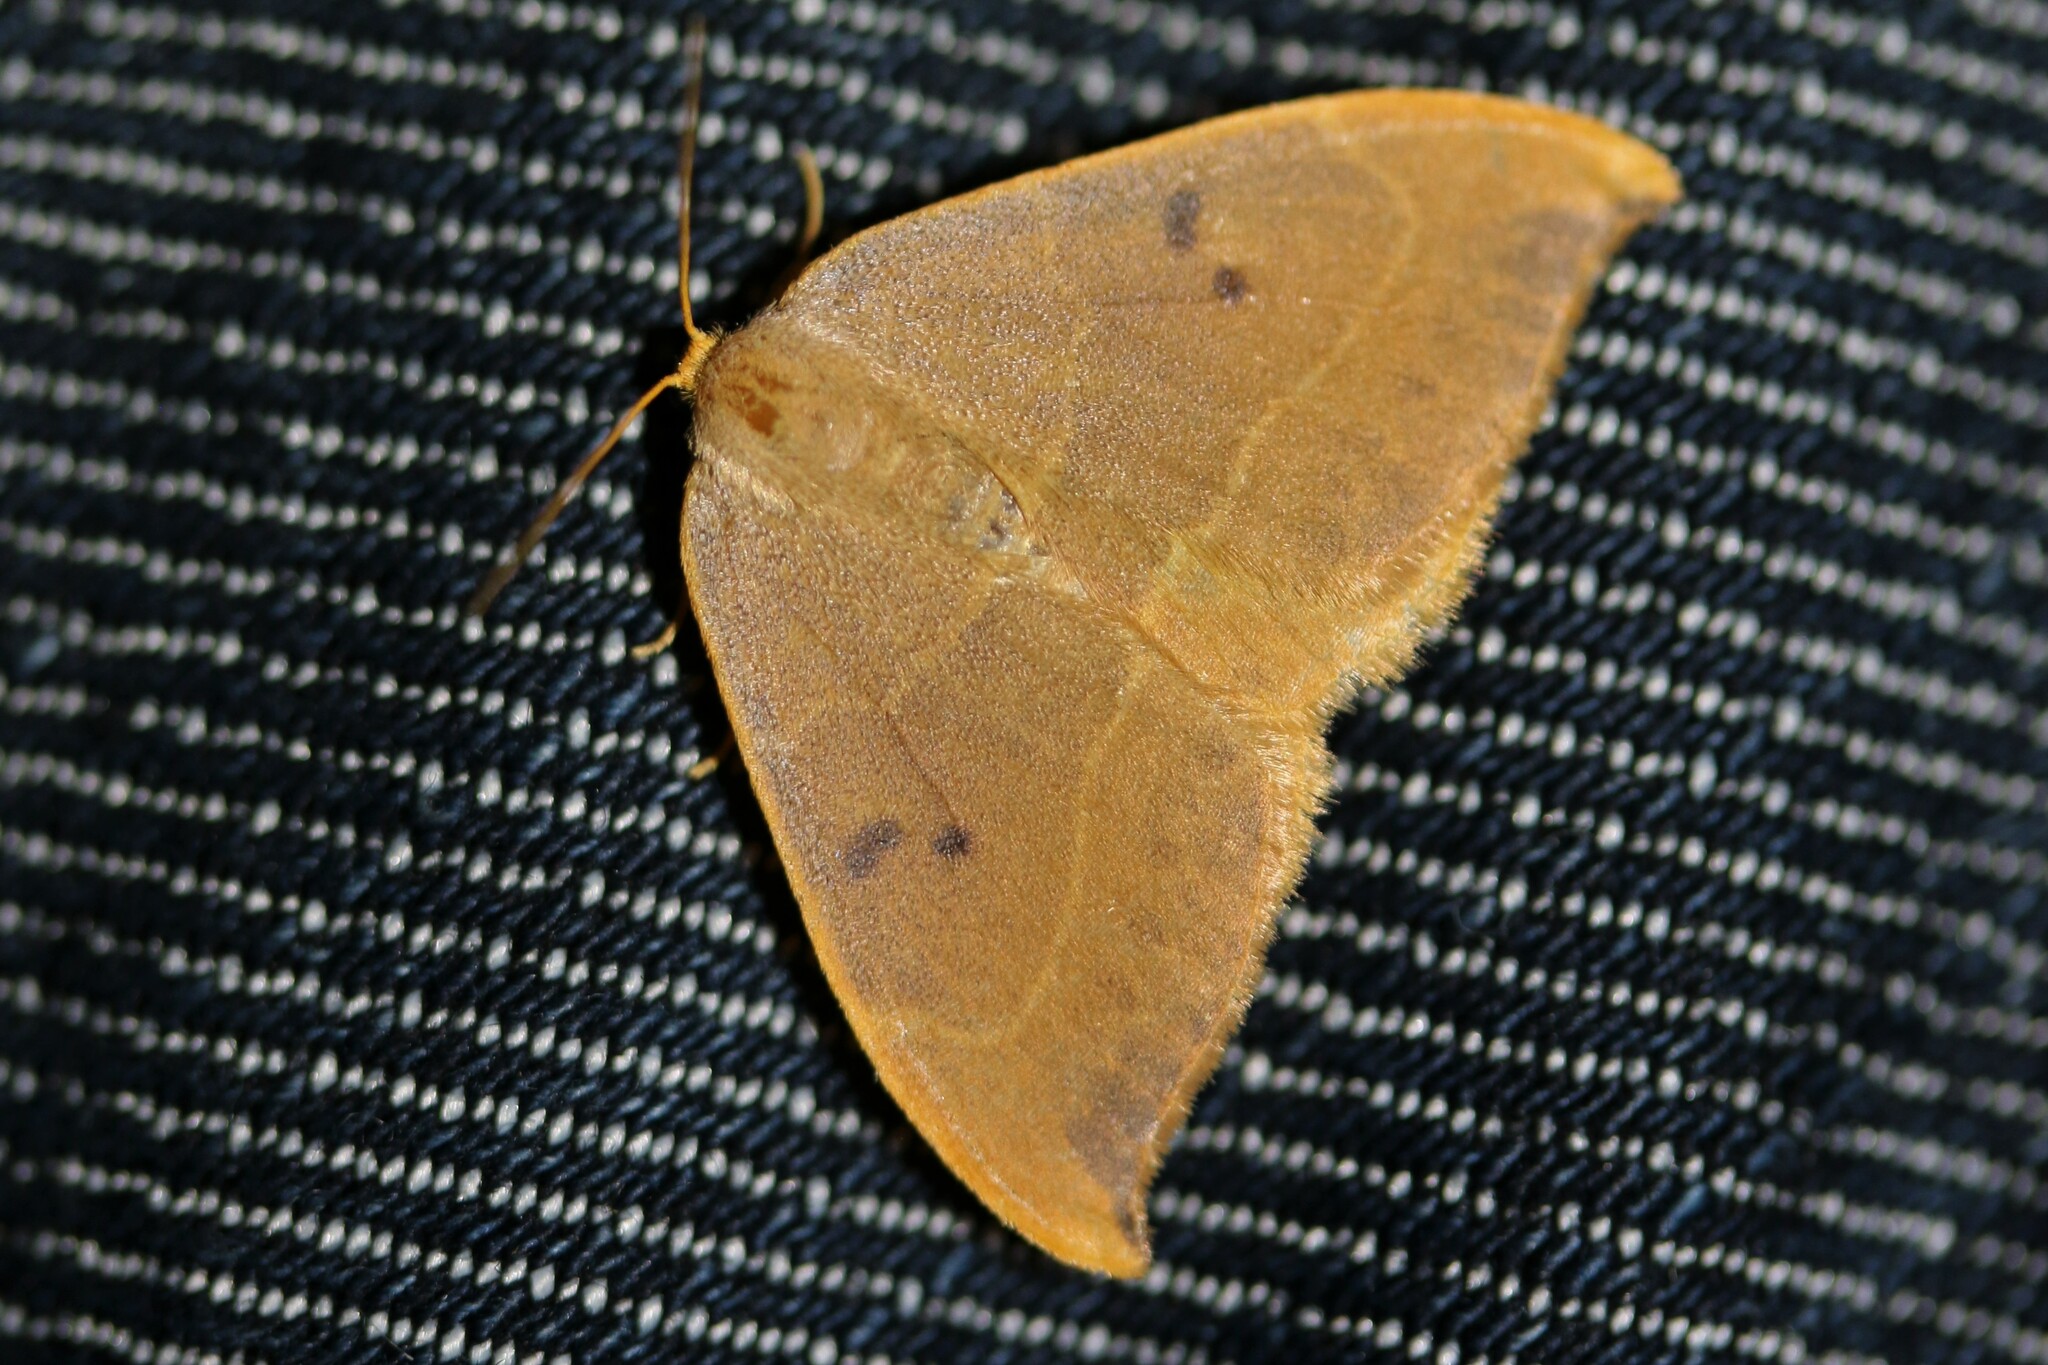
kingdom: Animalia
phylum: Arthropoda
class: Insecta
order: Lepidoptera
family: Drepanidae
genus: Watsonalla
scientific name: Watsonalla binaria
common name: Oak hook-tip
